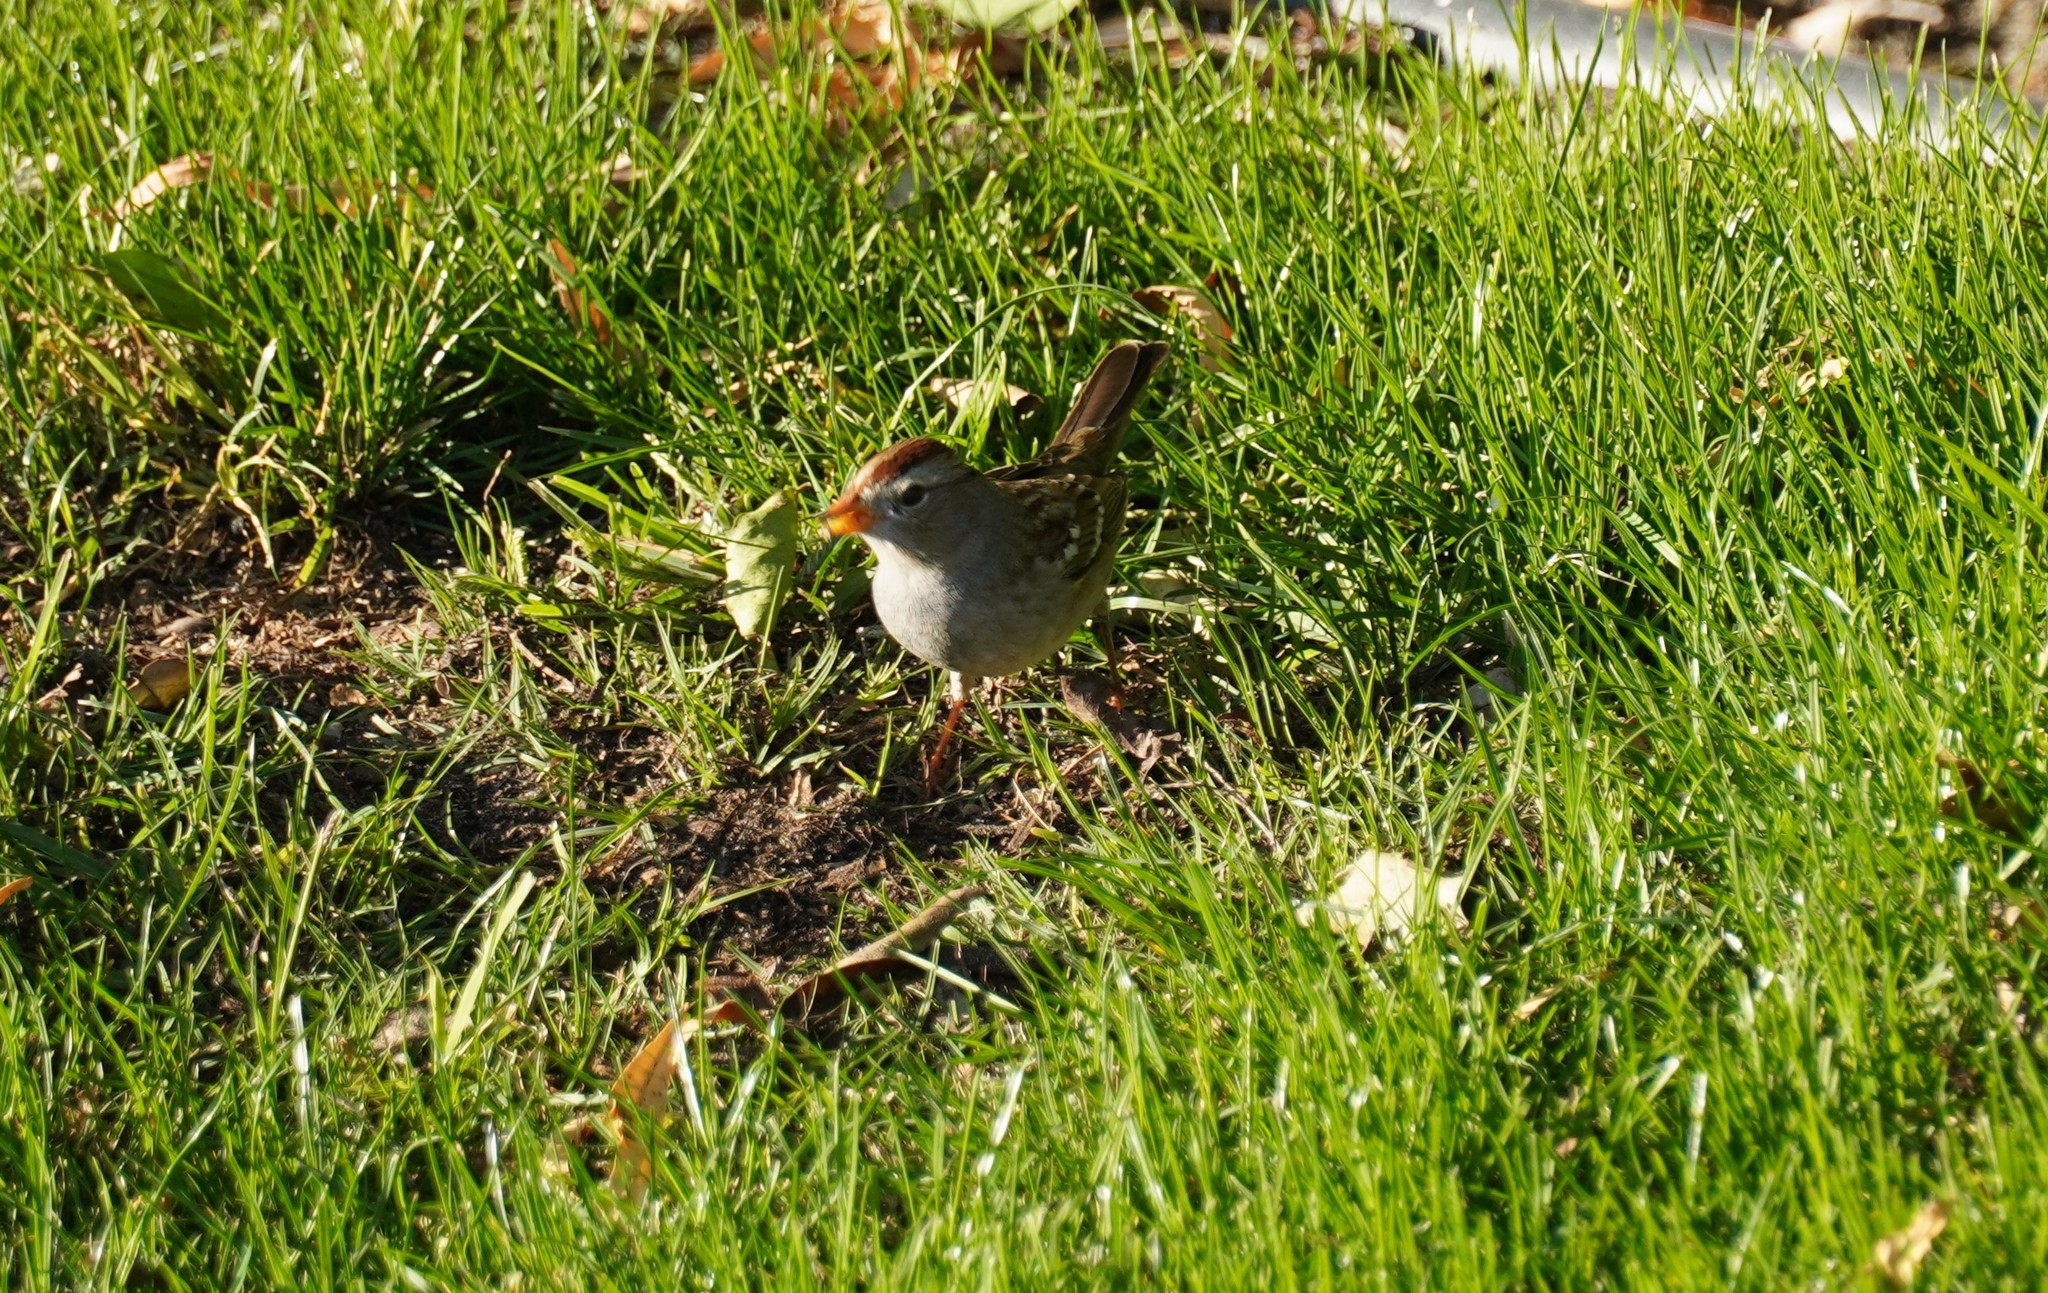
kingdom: Animalia
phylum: Chordata
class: Aves
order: Passeriformes
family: Passerellidae
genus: Zonotrichia
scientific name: Zonotrichia leucophrys
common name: White-crowned sparrow
